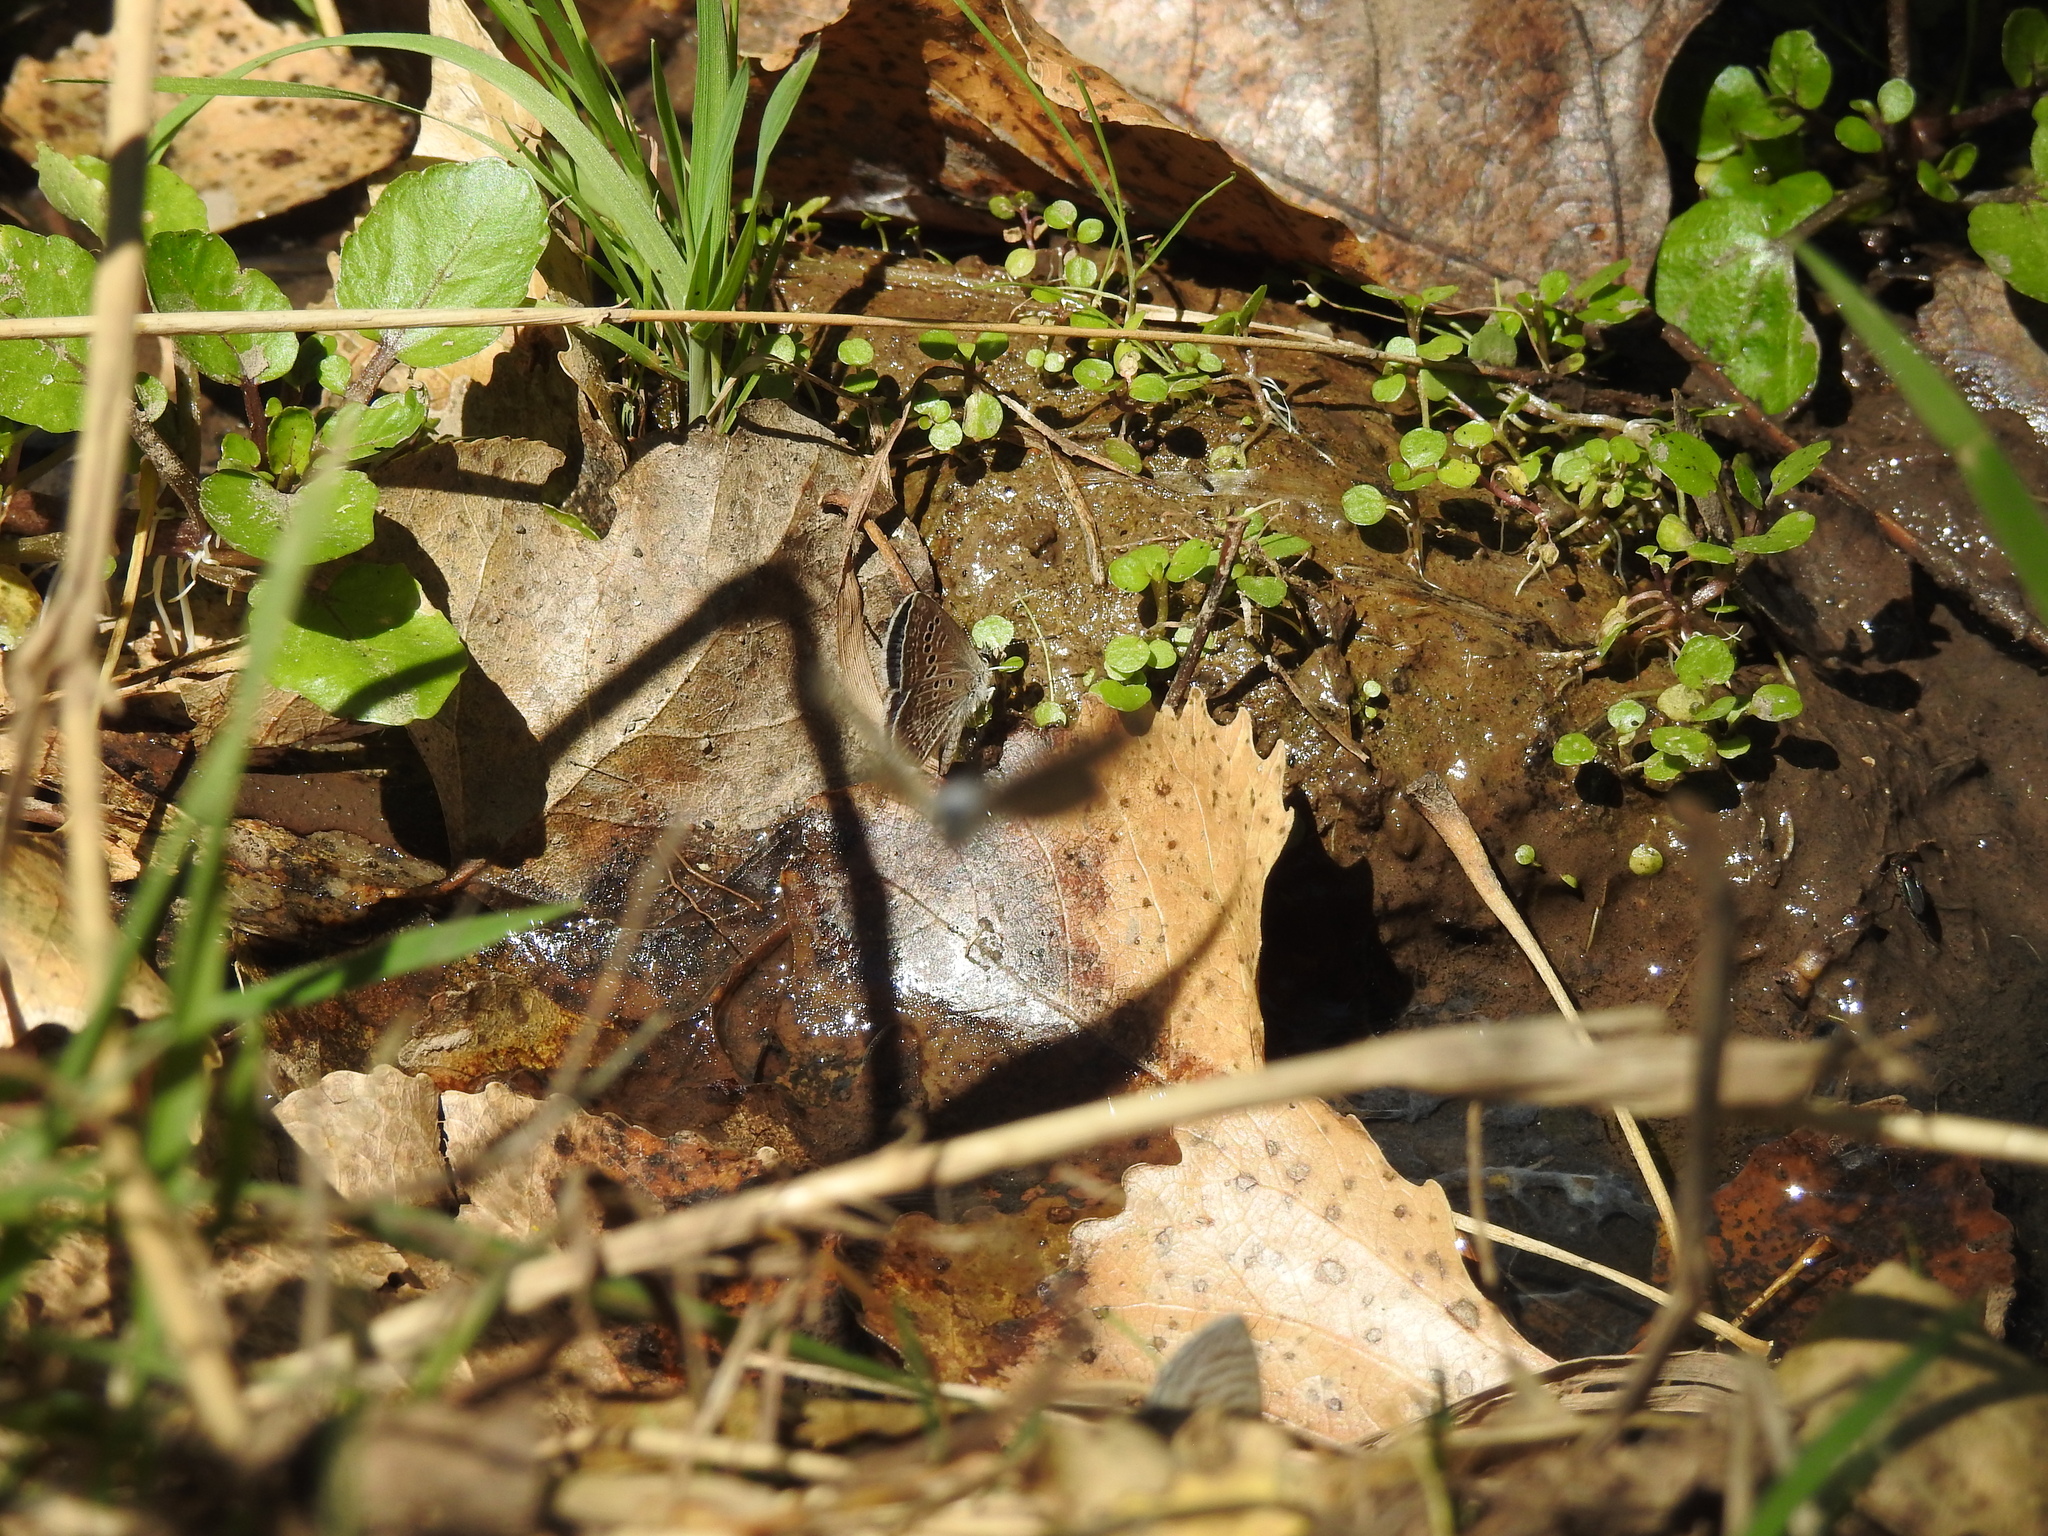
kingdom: Animalia
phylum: Arthropoda
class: Insecta
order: Lepidoptera
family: Lycaenidae
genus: Echinargus
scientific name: Echinargus isola
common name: Reakirt's blue
